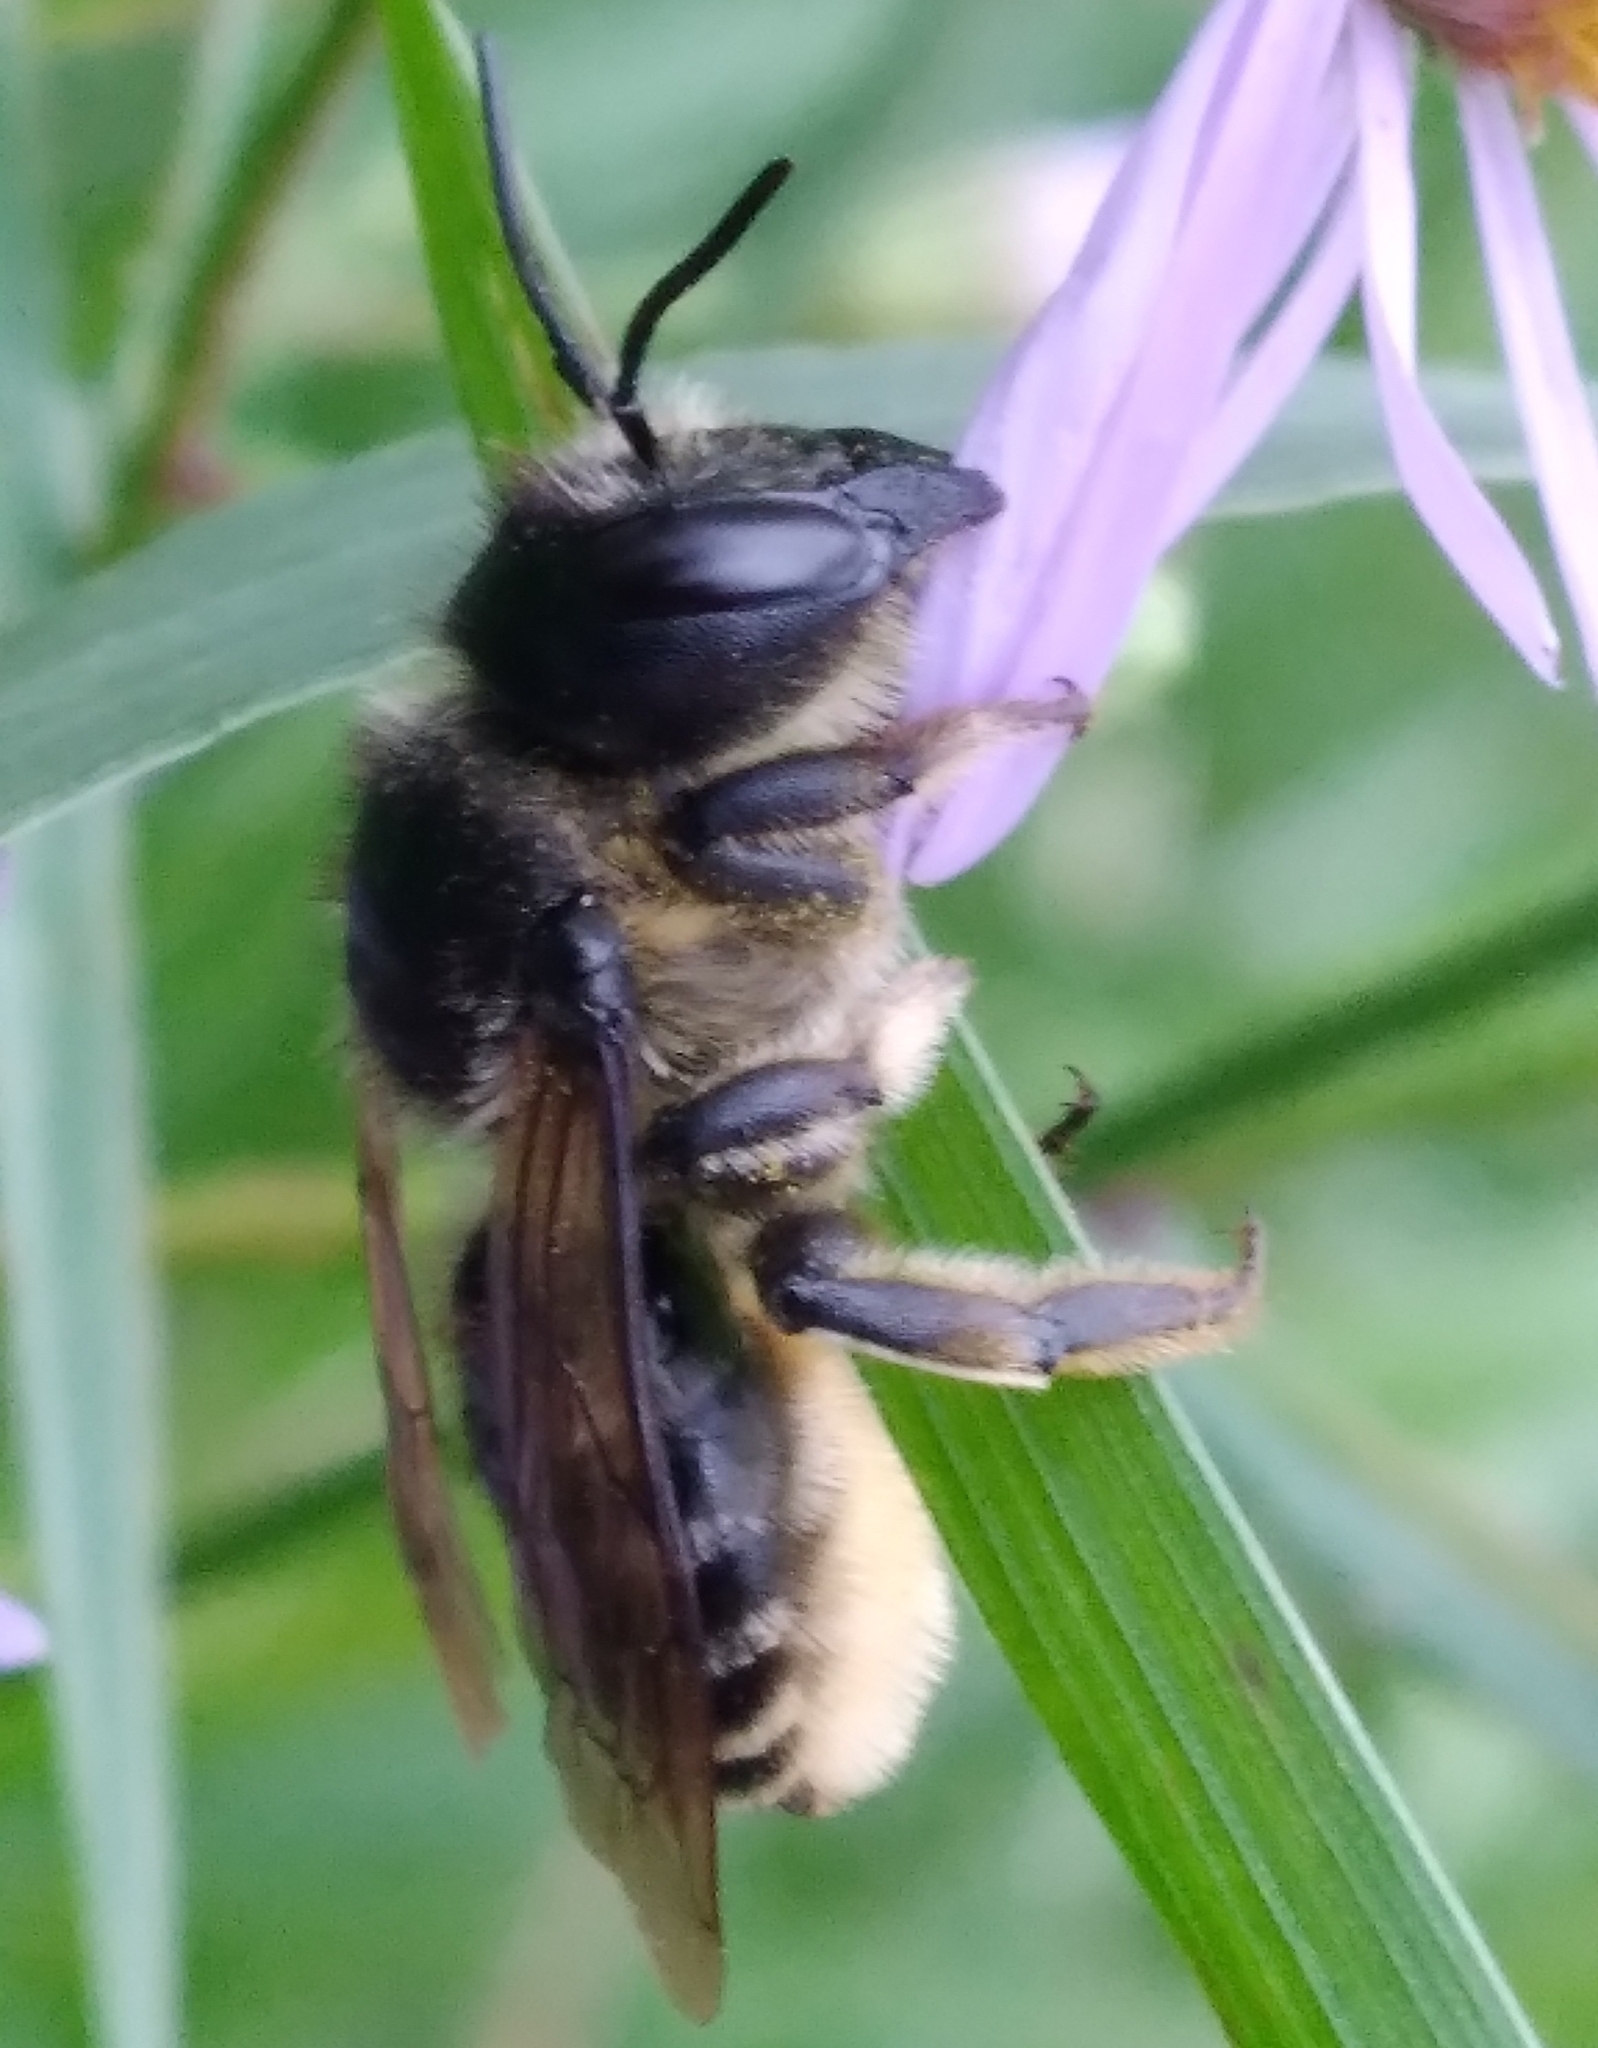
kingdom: Animalia
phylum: Arthropoda
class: Insecta
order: Hymenoptera
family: Megachilidae
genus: Megachile
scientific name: Megachile inermis
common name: Unarmed leafcutter bee
